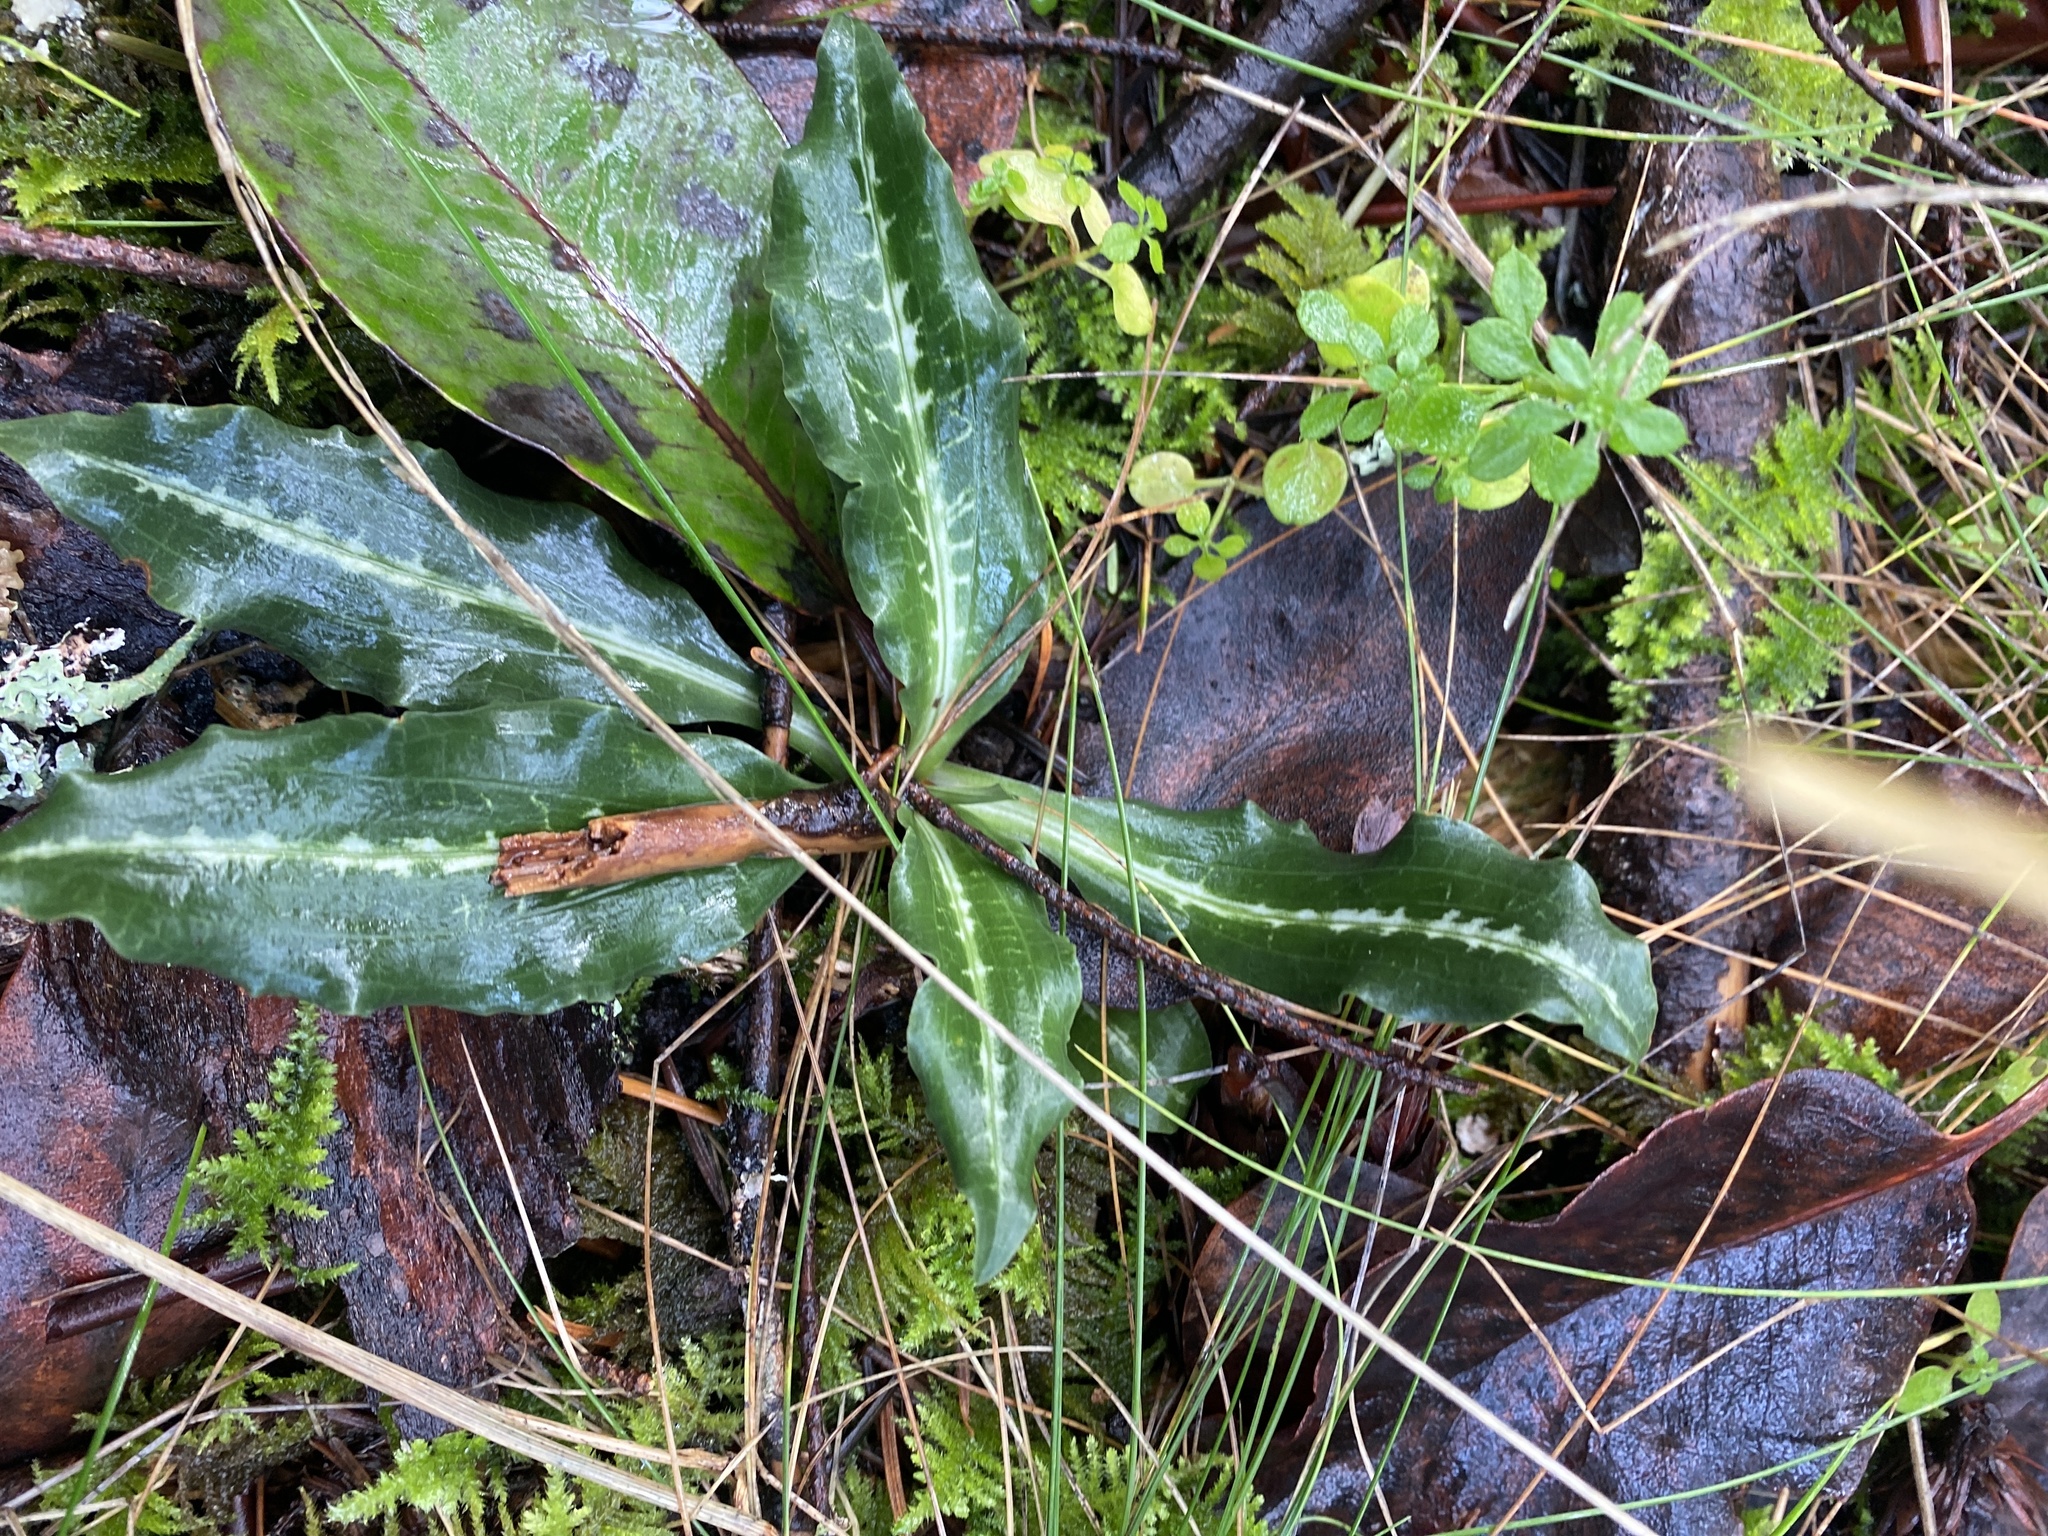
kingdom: Plantae
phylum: Tracheophyta
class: Liliopsida
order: Asparagales
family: Orchidaceae
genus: Goodyera
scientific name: Goodyera oblongifolia
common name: Giant rattlesnake-plantain
